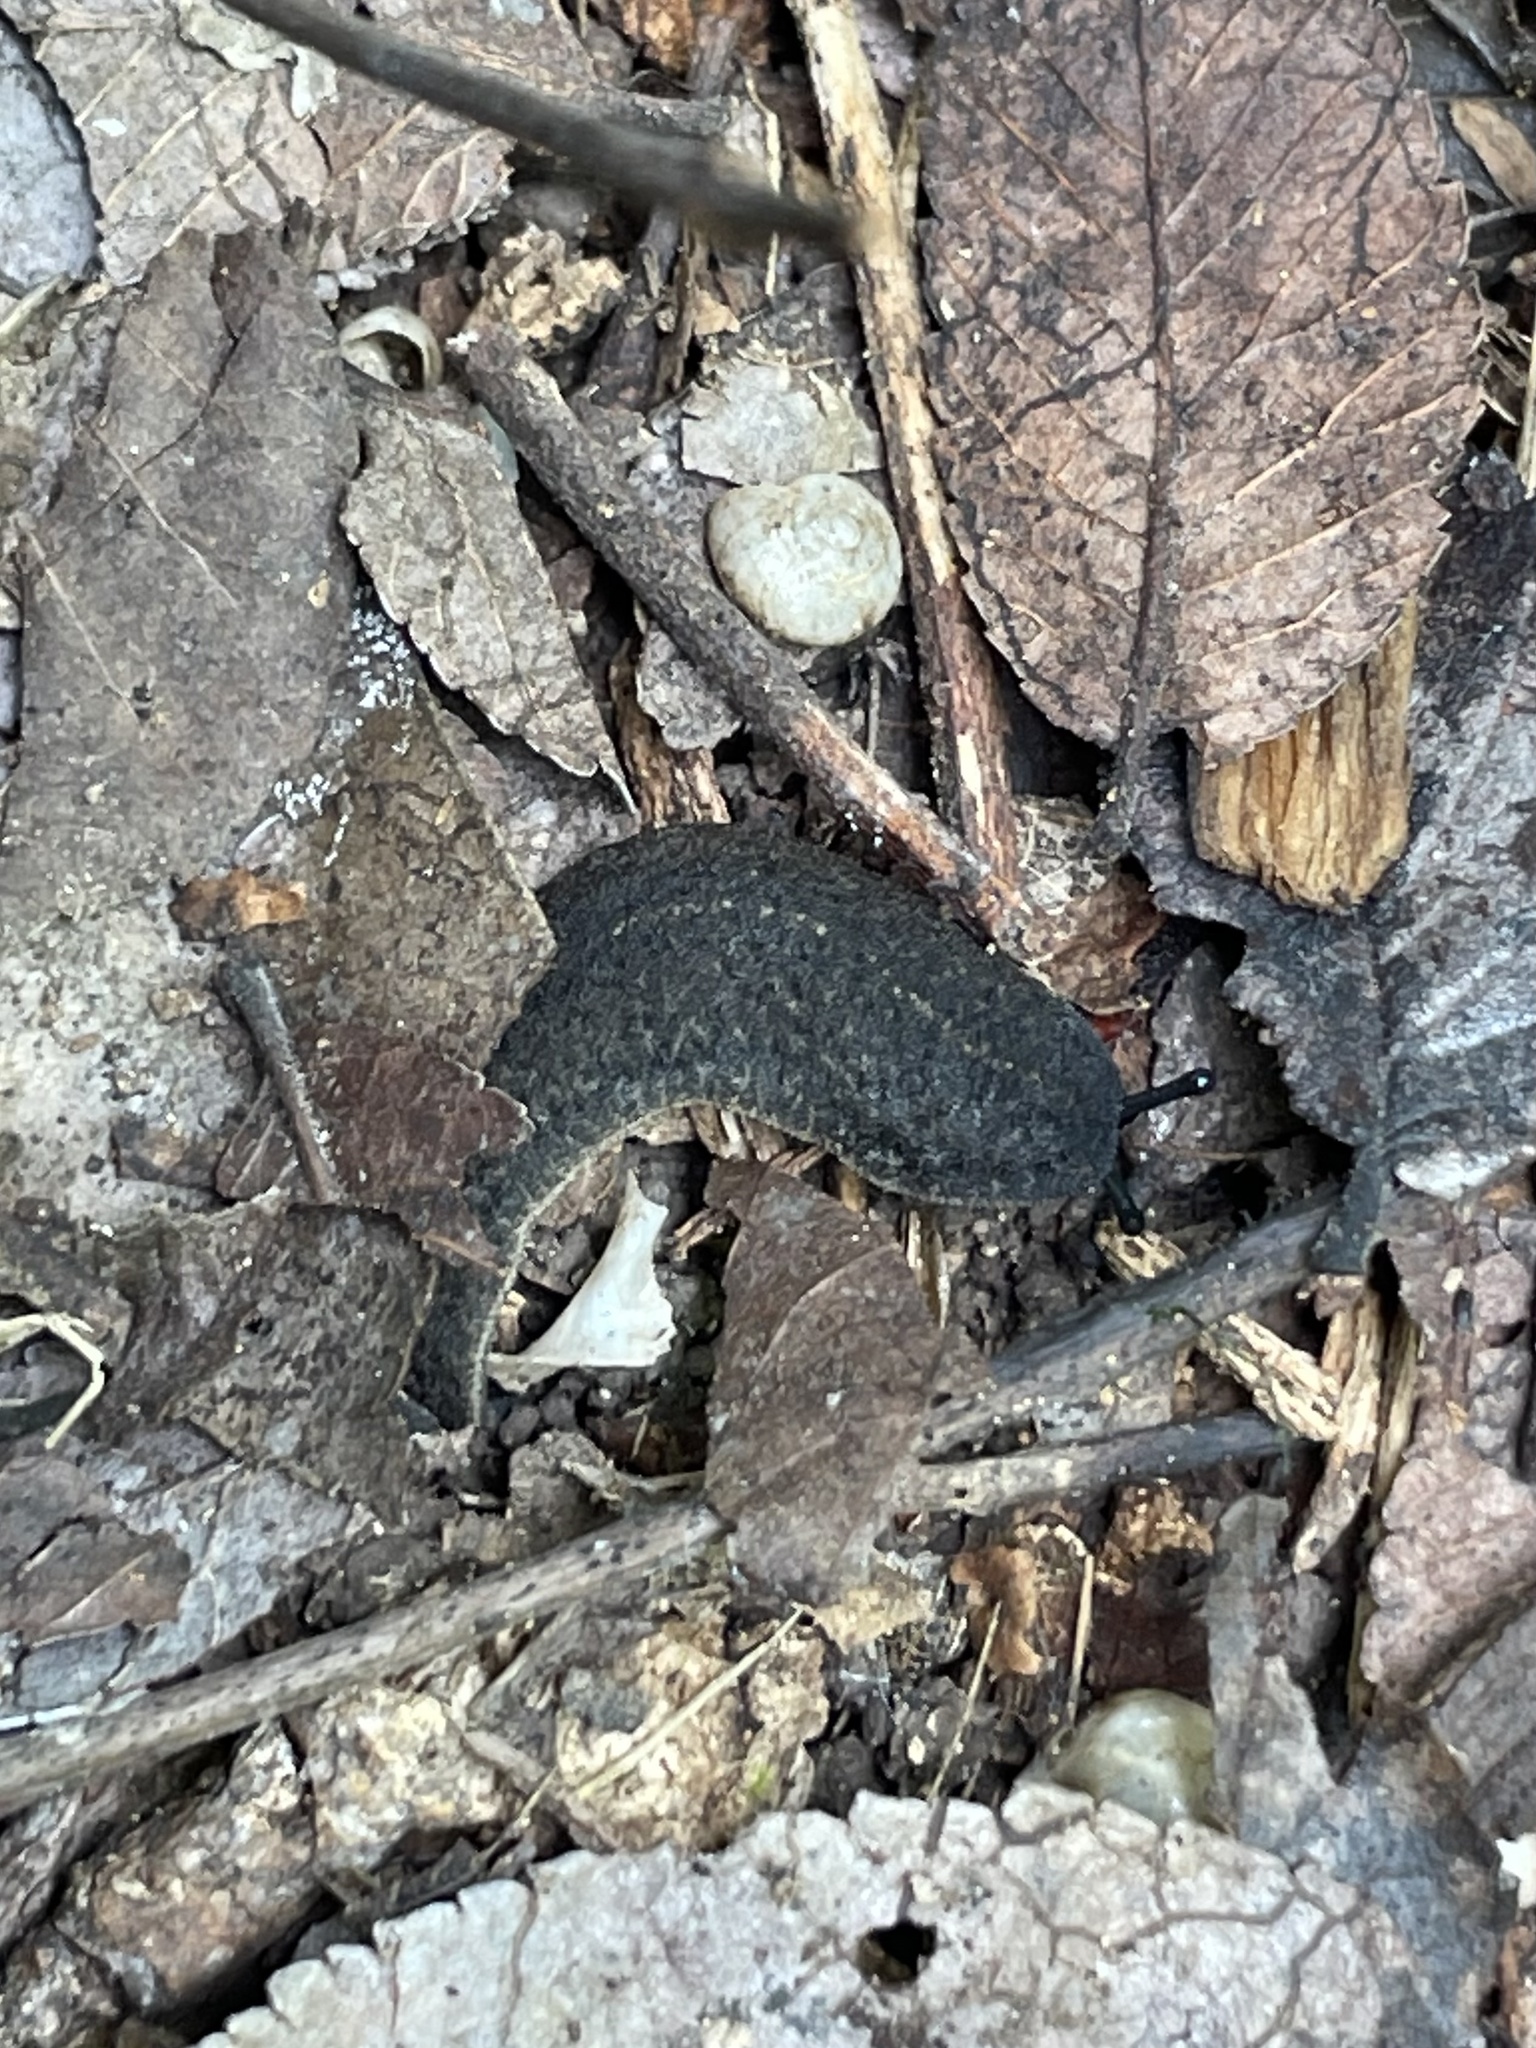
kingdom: Animalia
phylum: Mollusca
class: Gastropoda
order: Systellommatophora
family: Veronicellidae
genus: Belocaulus
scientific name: Belocaulus angustipes
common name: Black velvet leatherleaf slug
